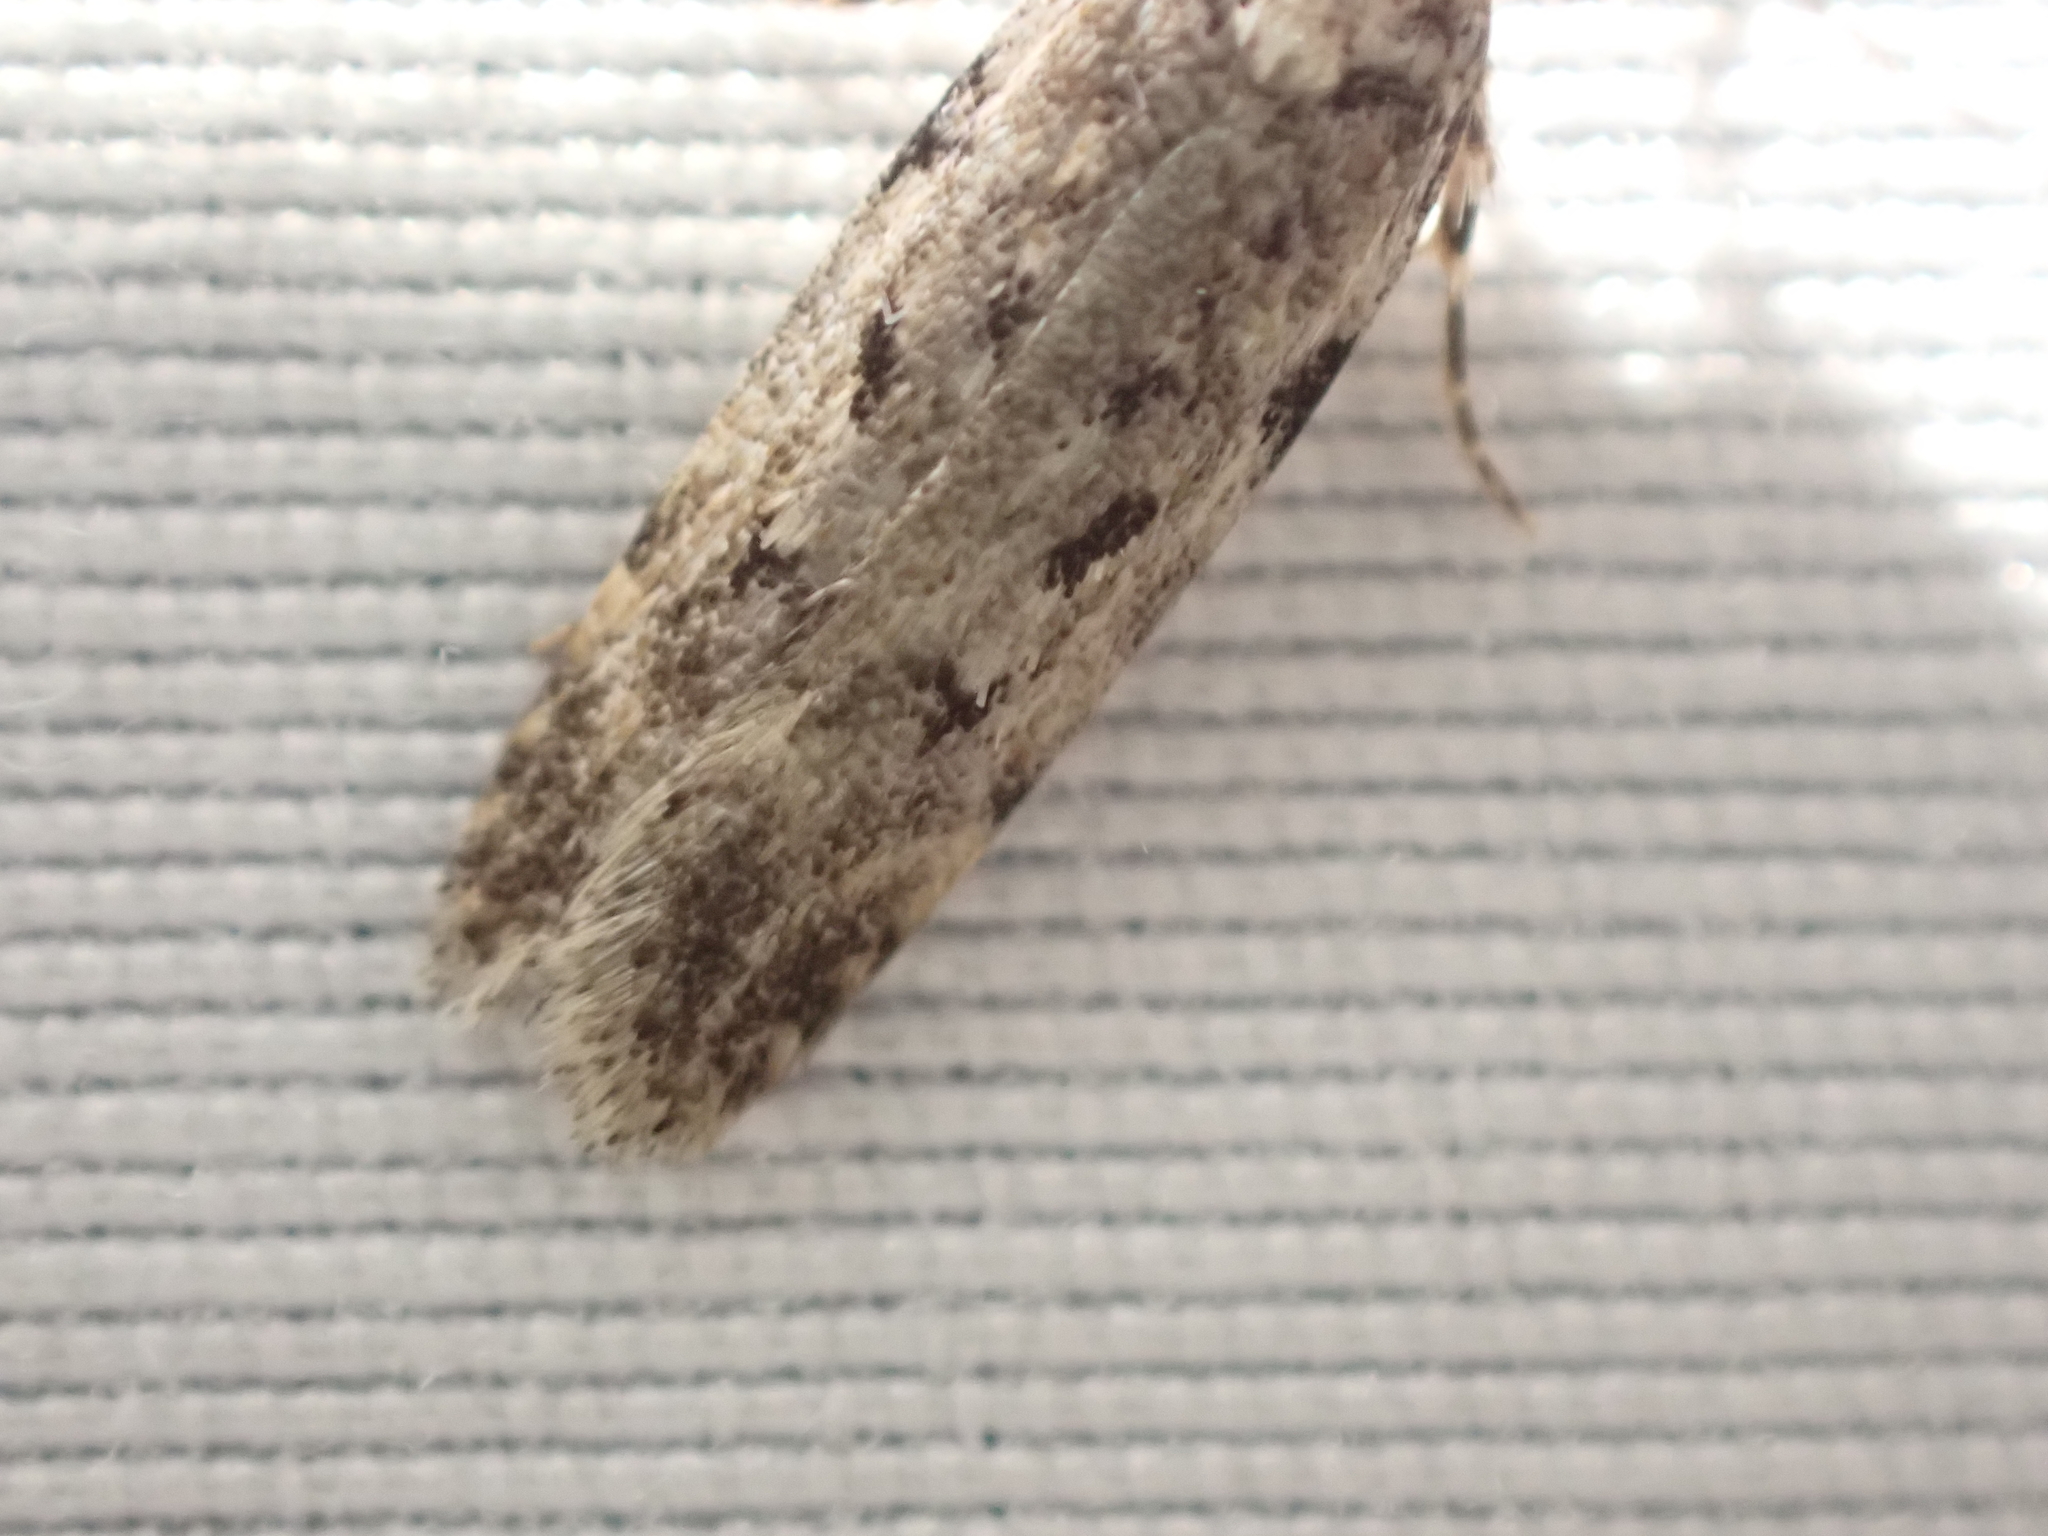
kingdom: Animalia
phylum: Arthropoda
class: Insecta
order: Lepidoptera
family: Gelechiidae
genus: Chionodes
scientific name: Chionodes petalumensis
